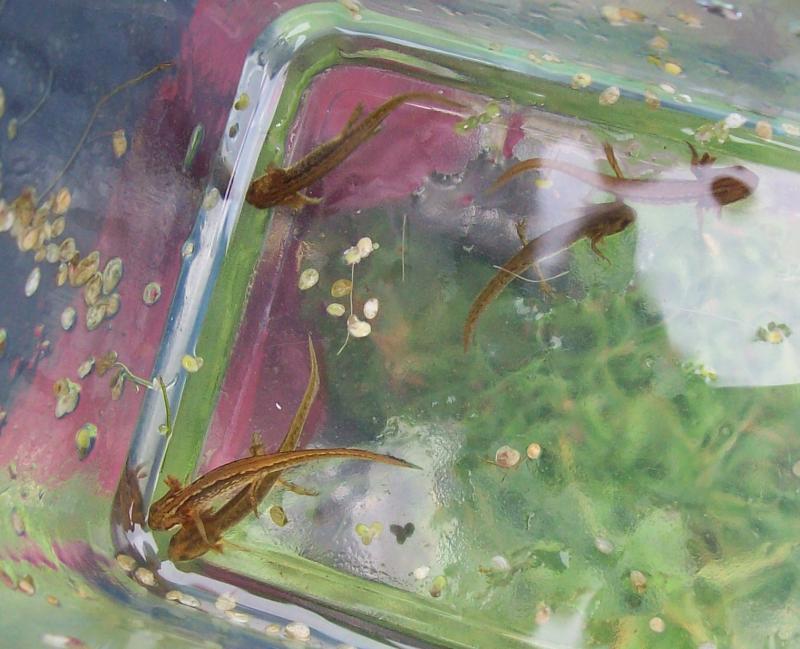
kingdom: Animalia
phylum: Chordata
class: Amphibia
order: Caudata
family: Salamandridae
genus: Lissotriton
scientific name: Lissotriton vulgaris
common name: Smooth newt
